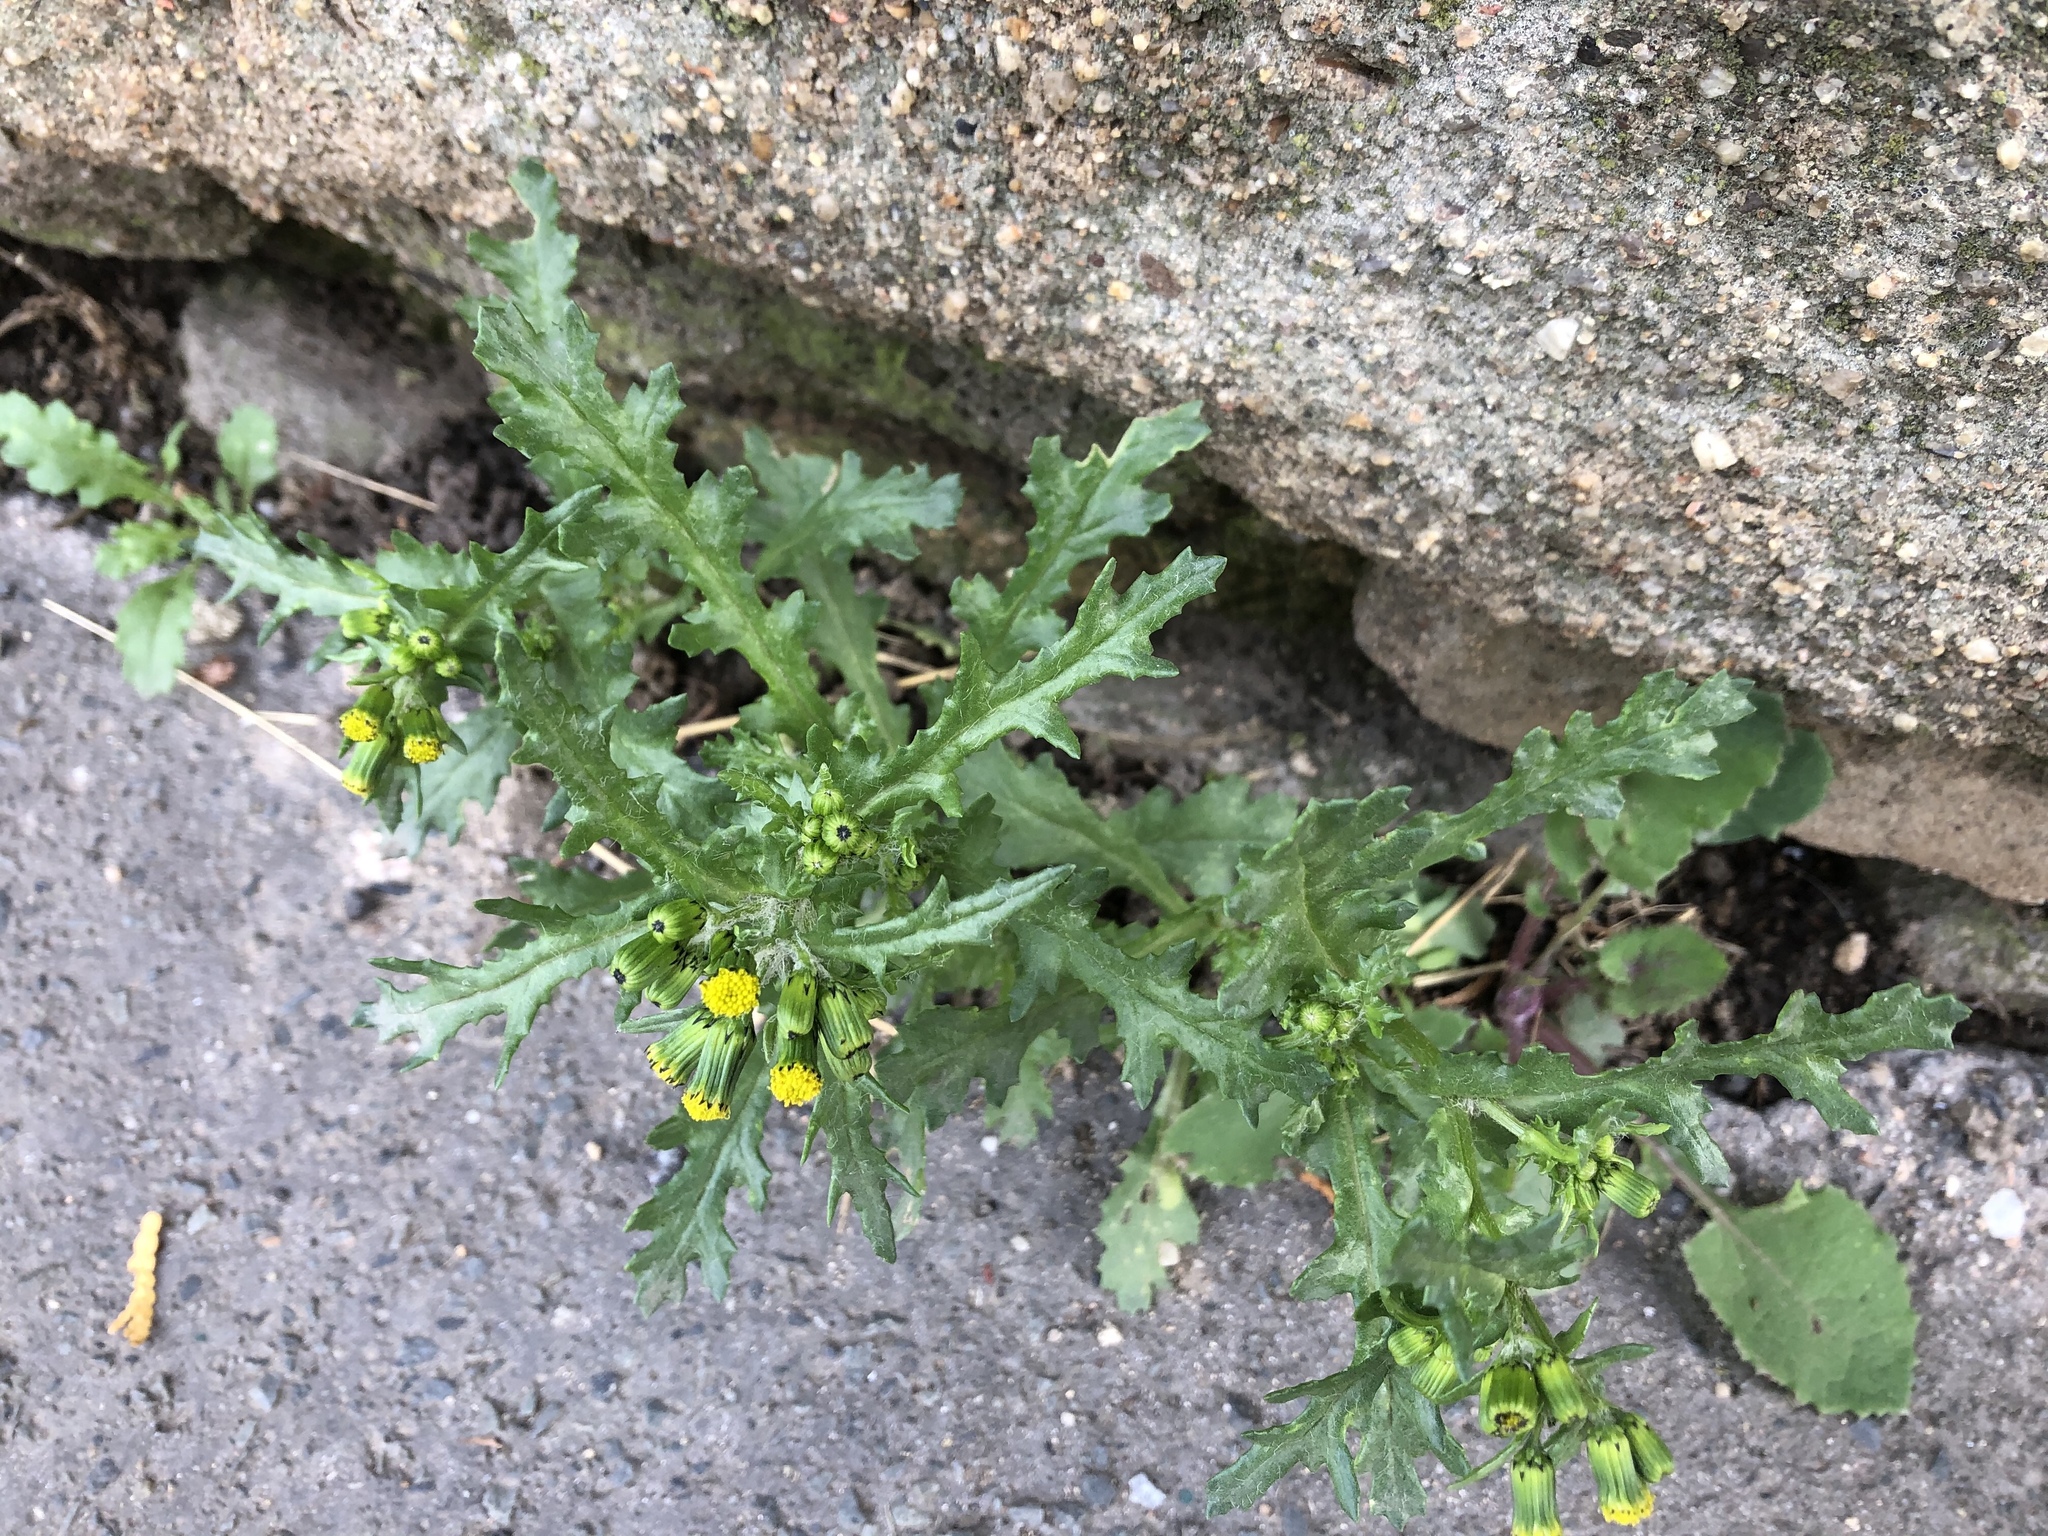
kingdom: Plantae
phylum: Tracheophyta
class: Magnoliopsida
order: Asterales
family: Asteraceae
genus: Senecio
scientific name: Senecio vulgaris
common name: Old-man-in-the-spring
